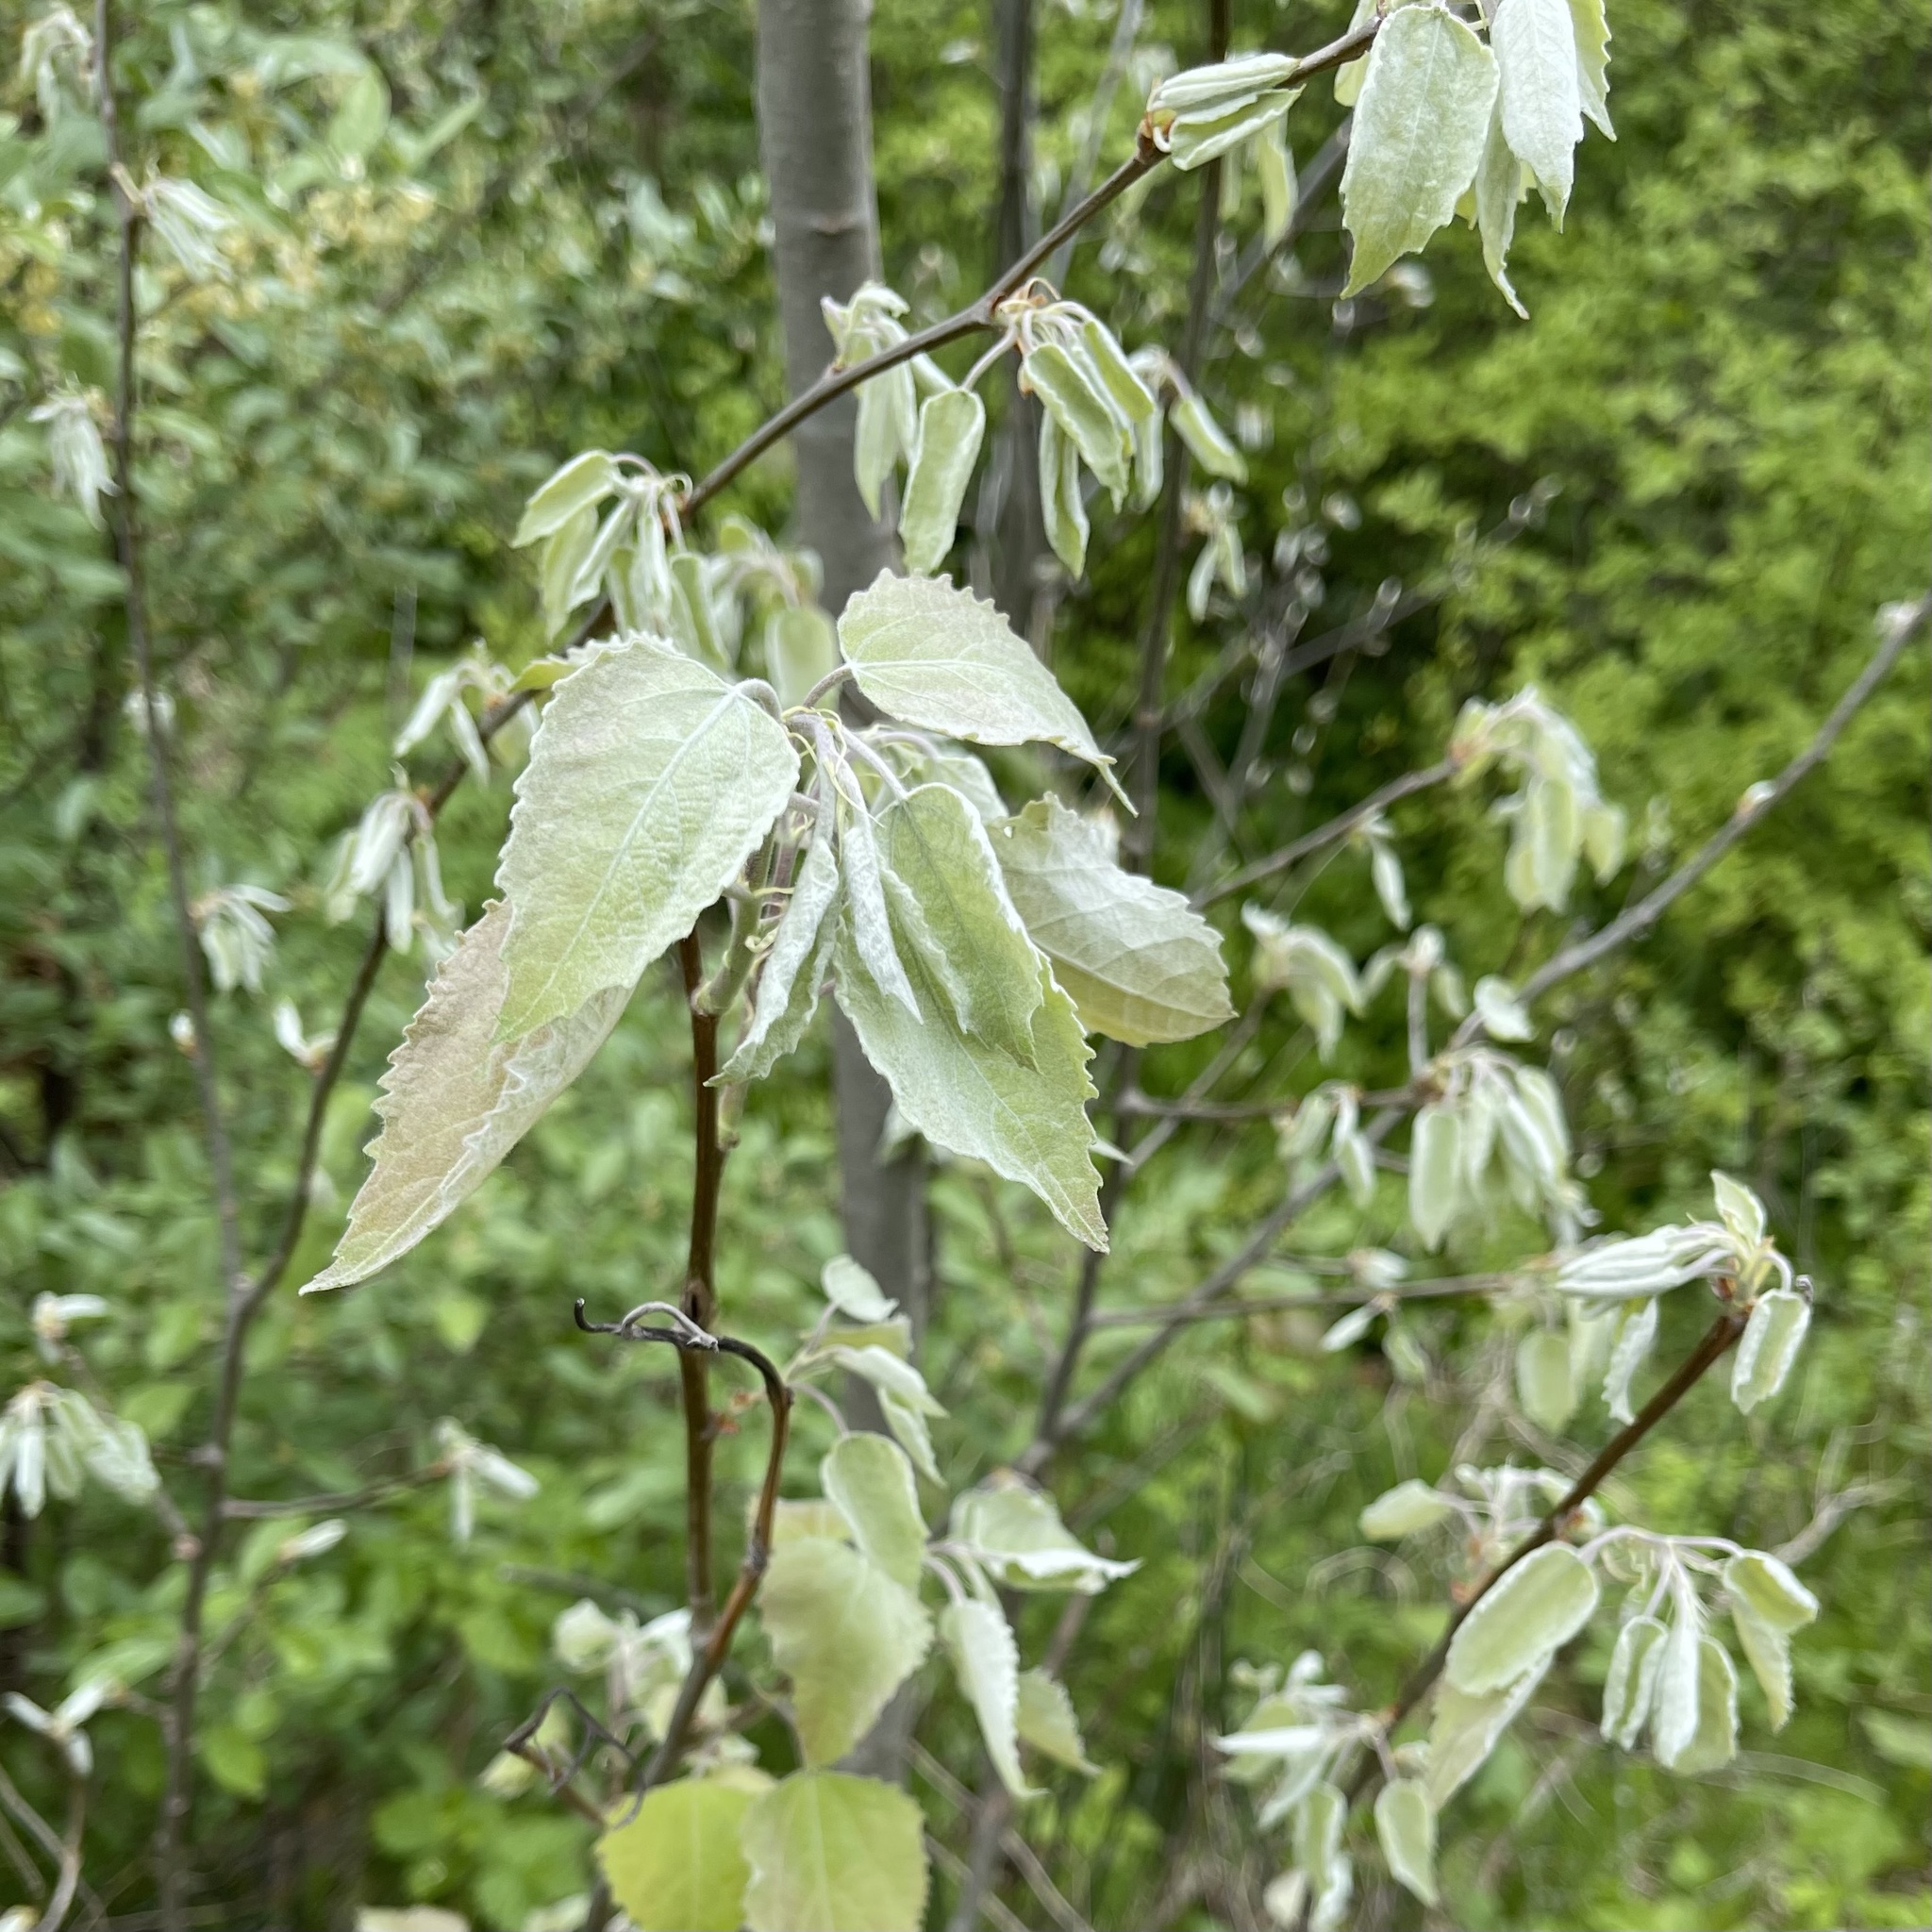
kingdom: Plantae
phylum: Tracheophyta
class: Magnoliopsida
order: Malpighiales
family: Salicaceae
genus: Populus
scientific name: Populus grandidentata
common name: Bigtooth aspen
